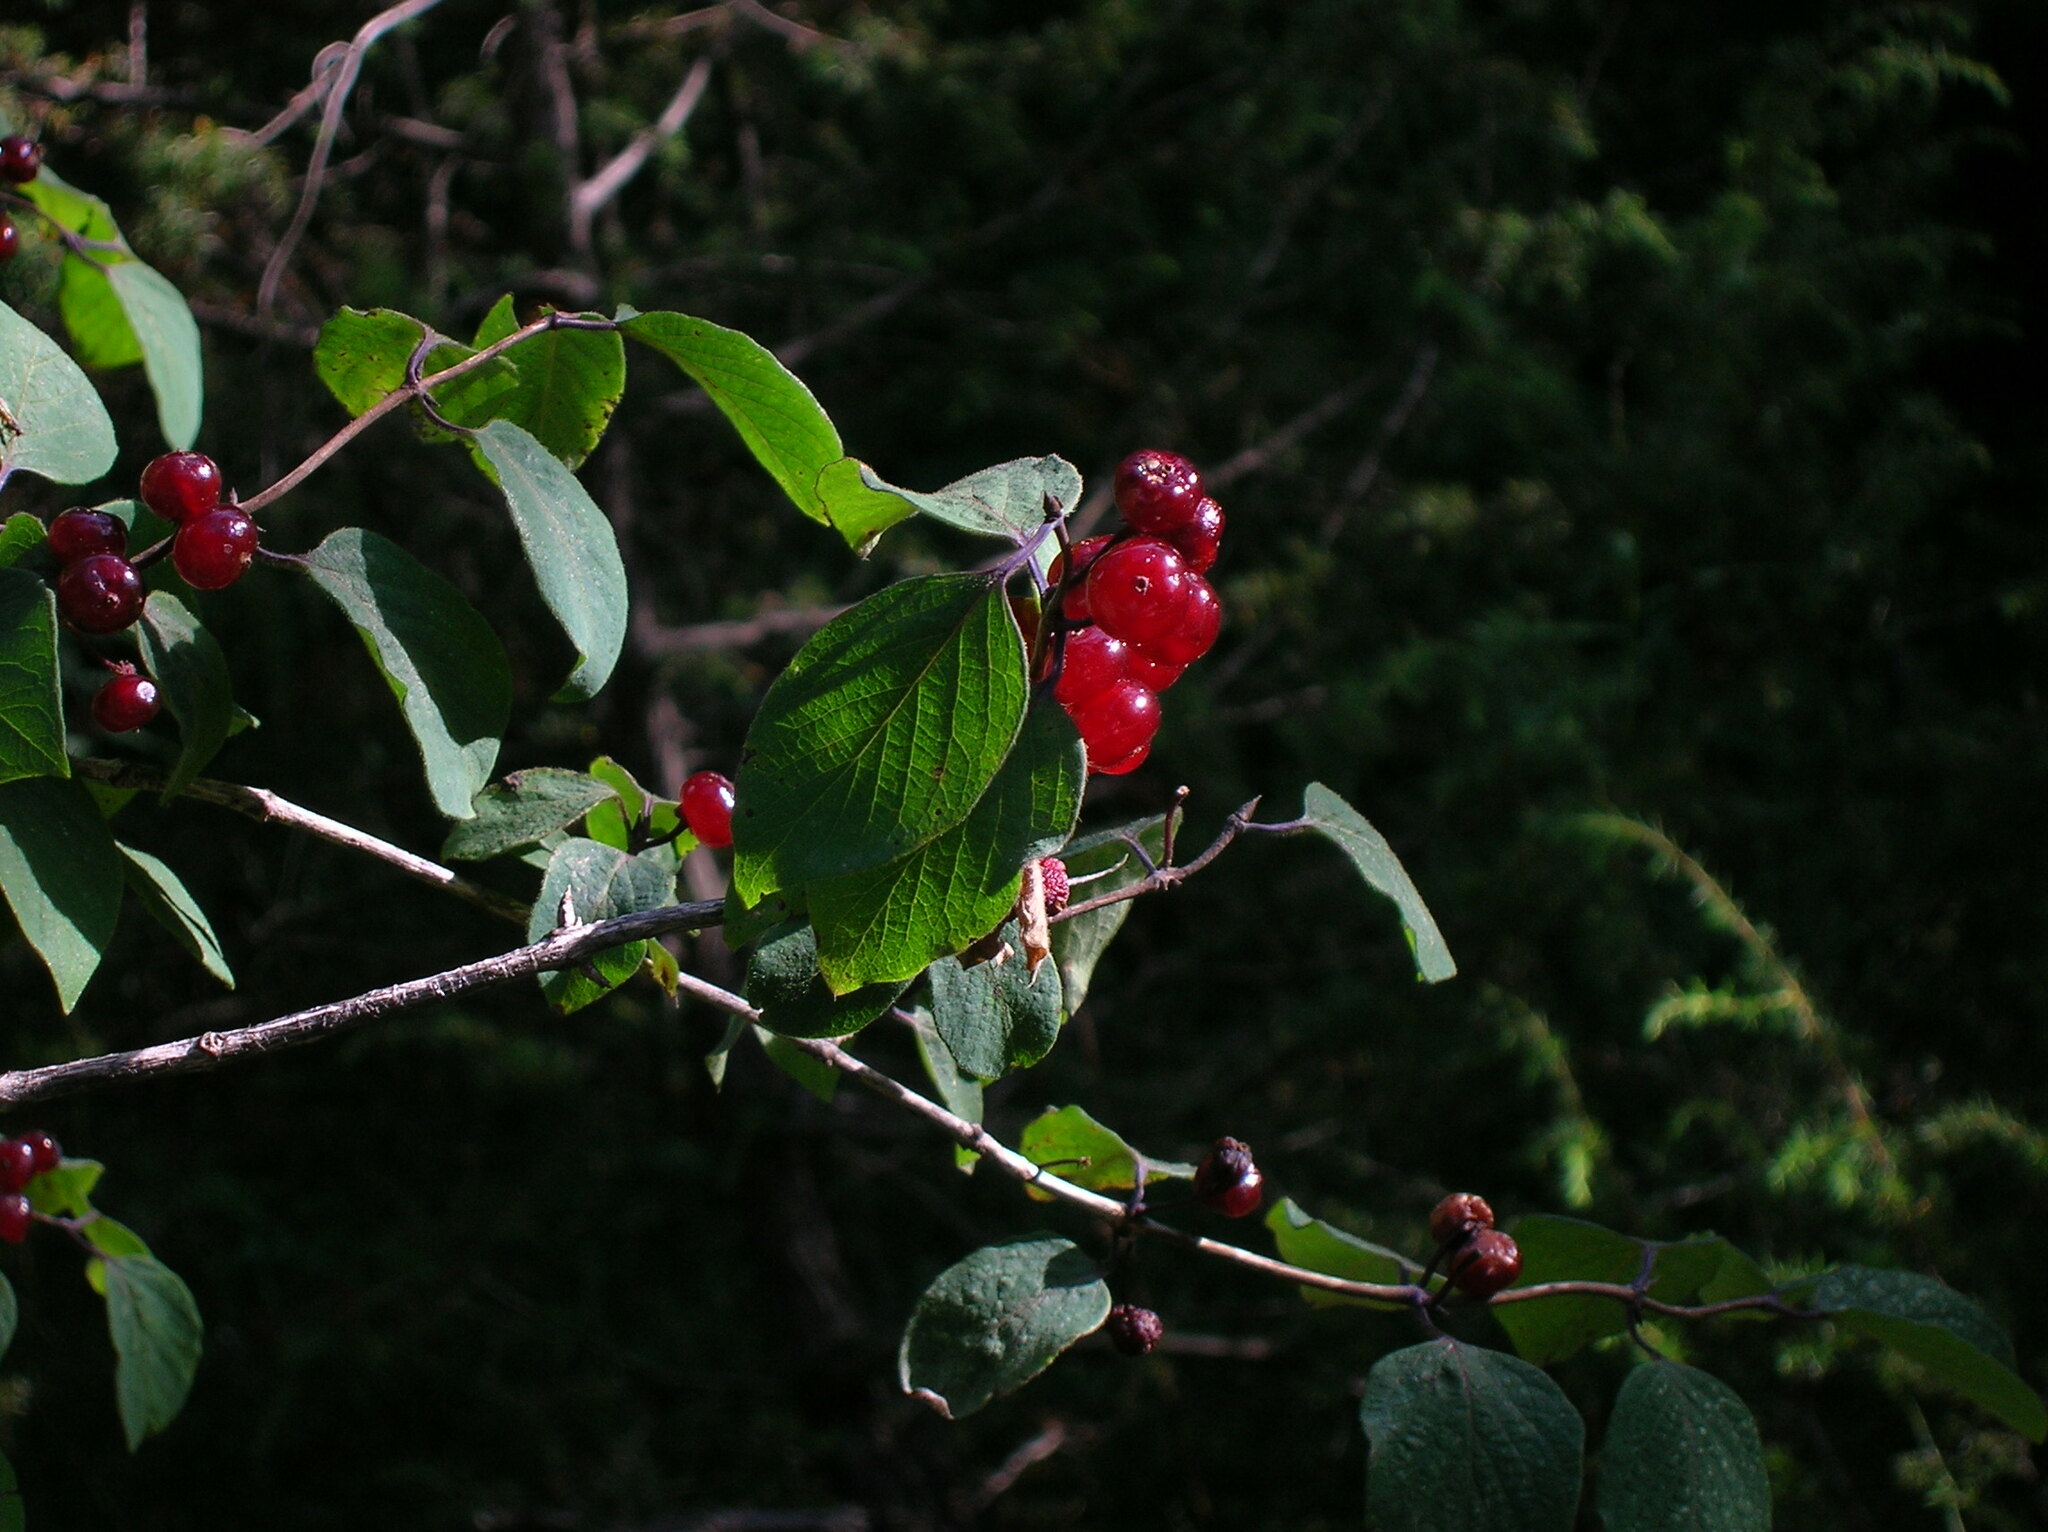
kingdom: Plantae
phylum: Tracheophyta
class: Magnoliopsida
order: Dipsacales
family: Caprifoliaceae
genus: Lonicera
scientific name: Lonicera xylosteum
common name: Fly honeysuckle
